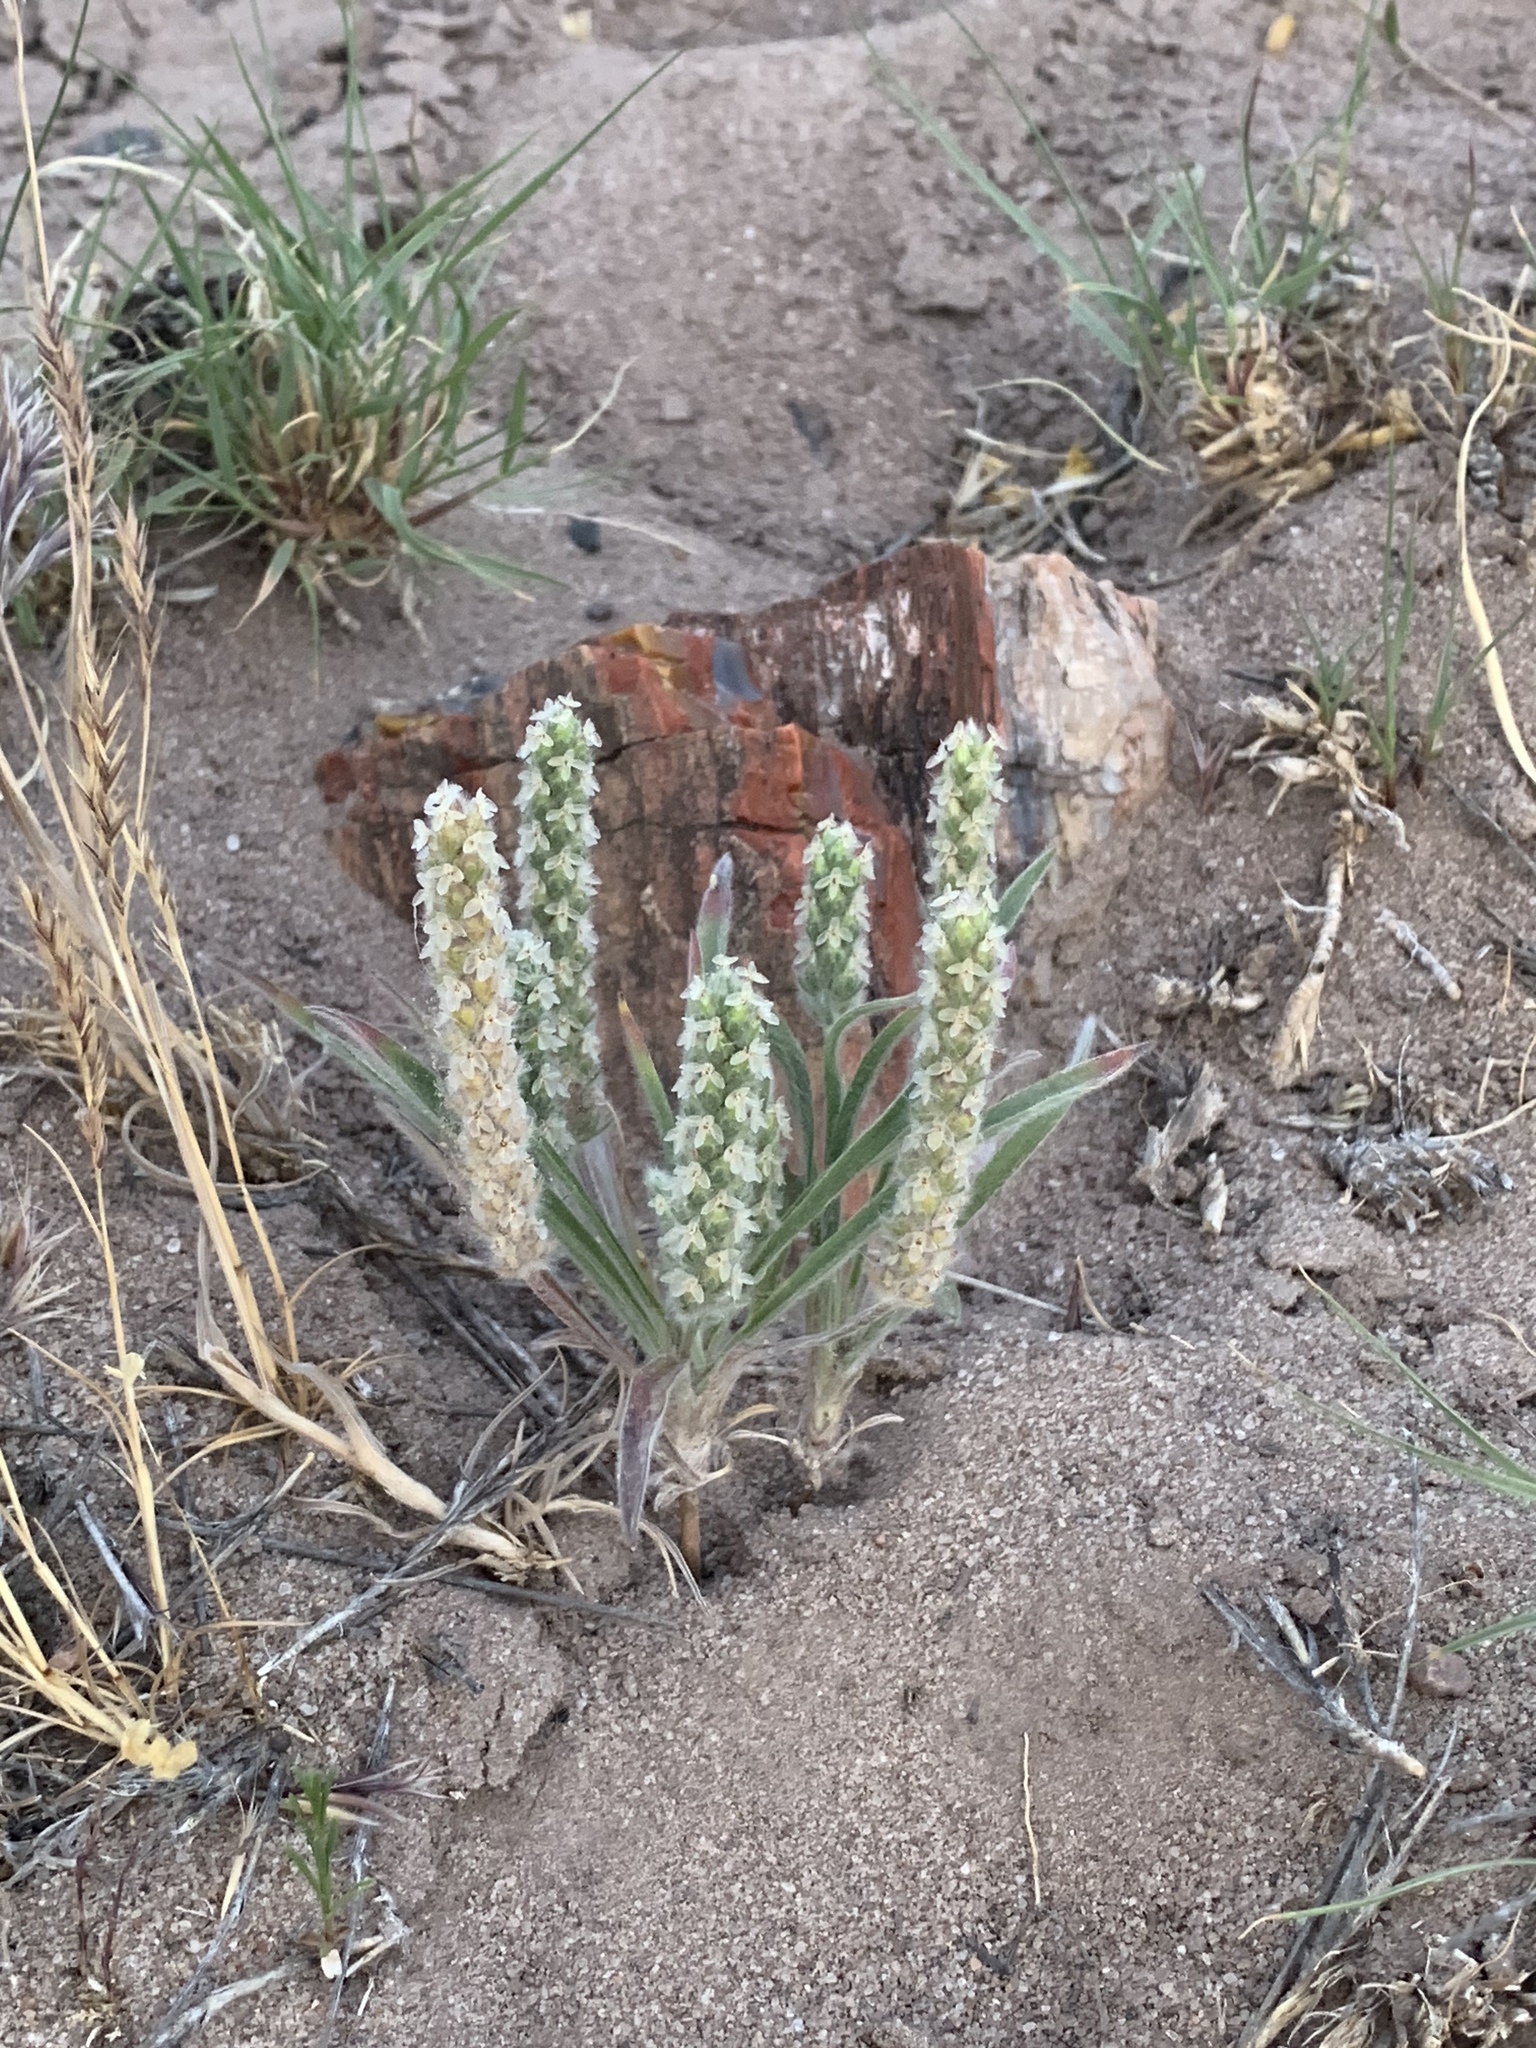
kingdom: Plantae
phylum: Tracheophyta
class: Magnoliopsida
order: Lamiales
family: Plantaginaceae
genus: Plantago
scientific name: Plantago patagonica
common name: Patagonia indian-wheat
